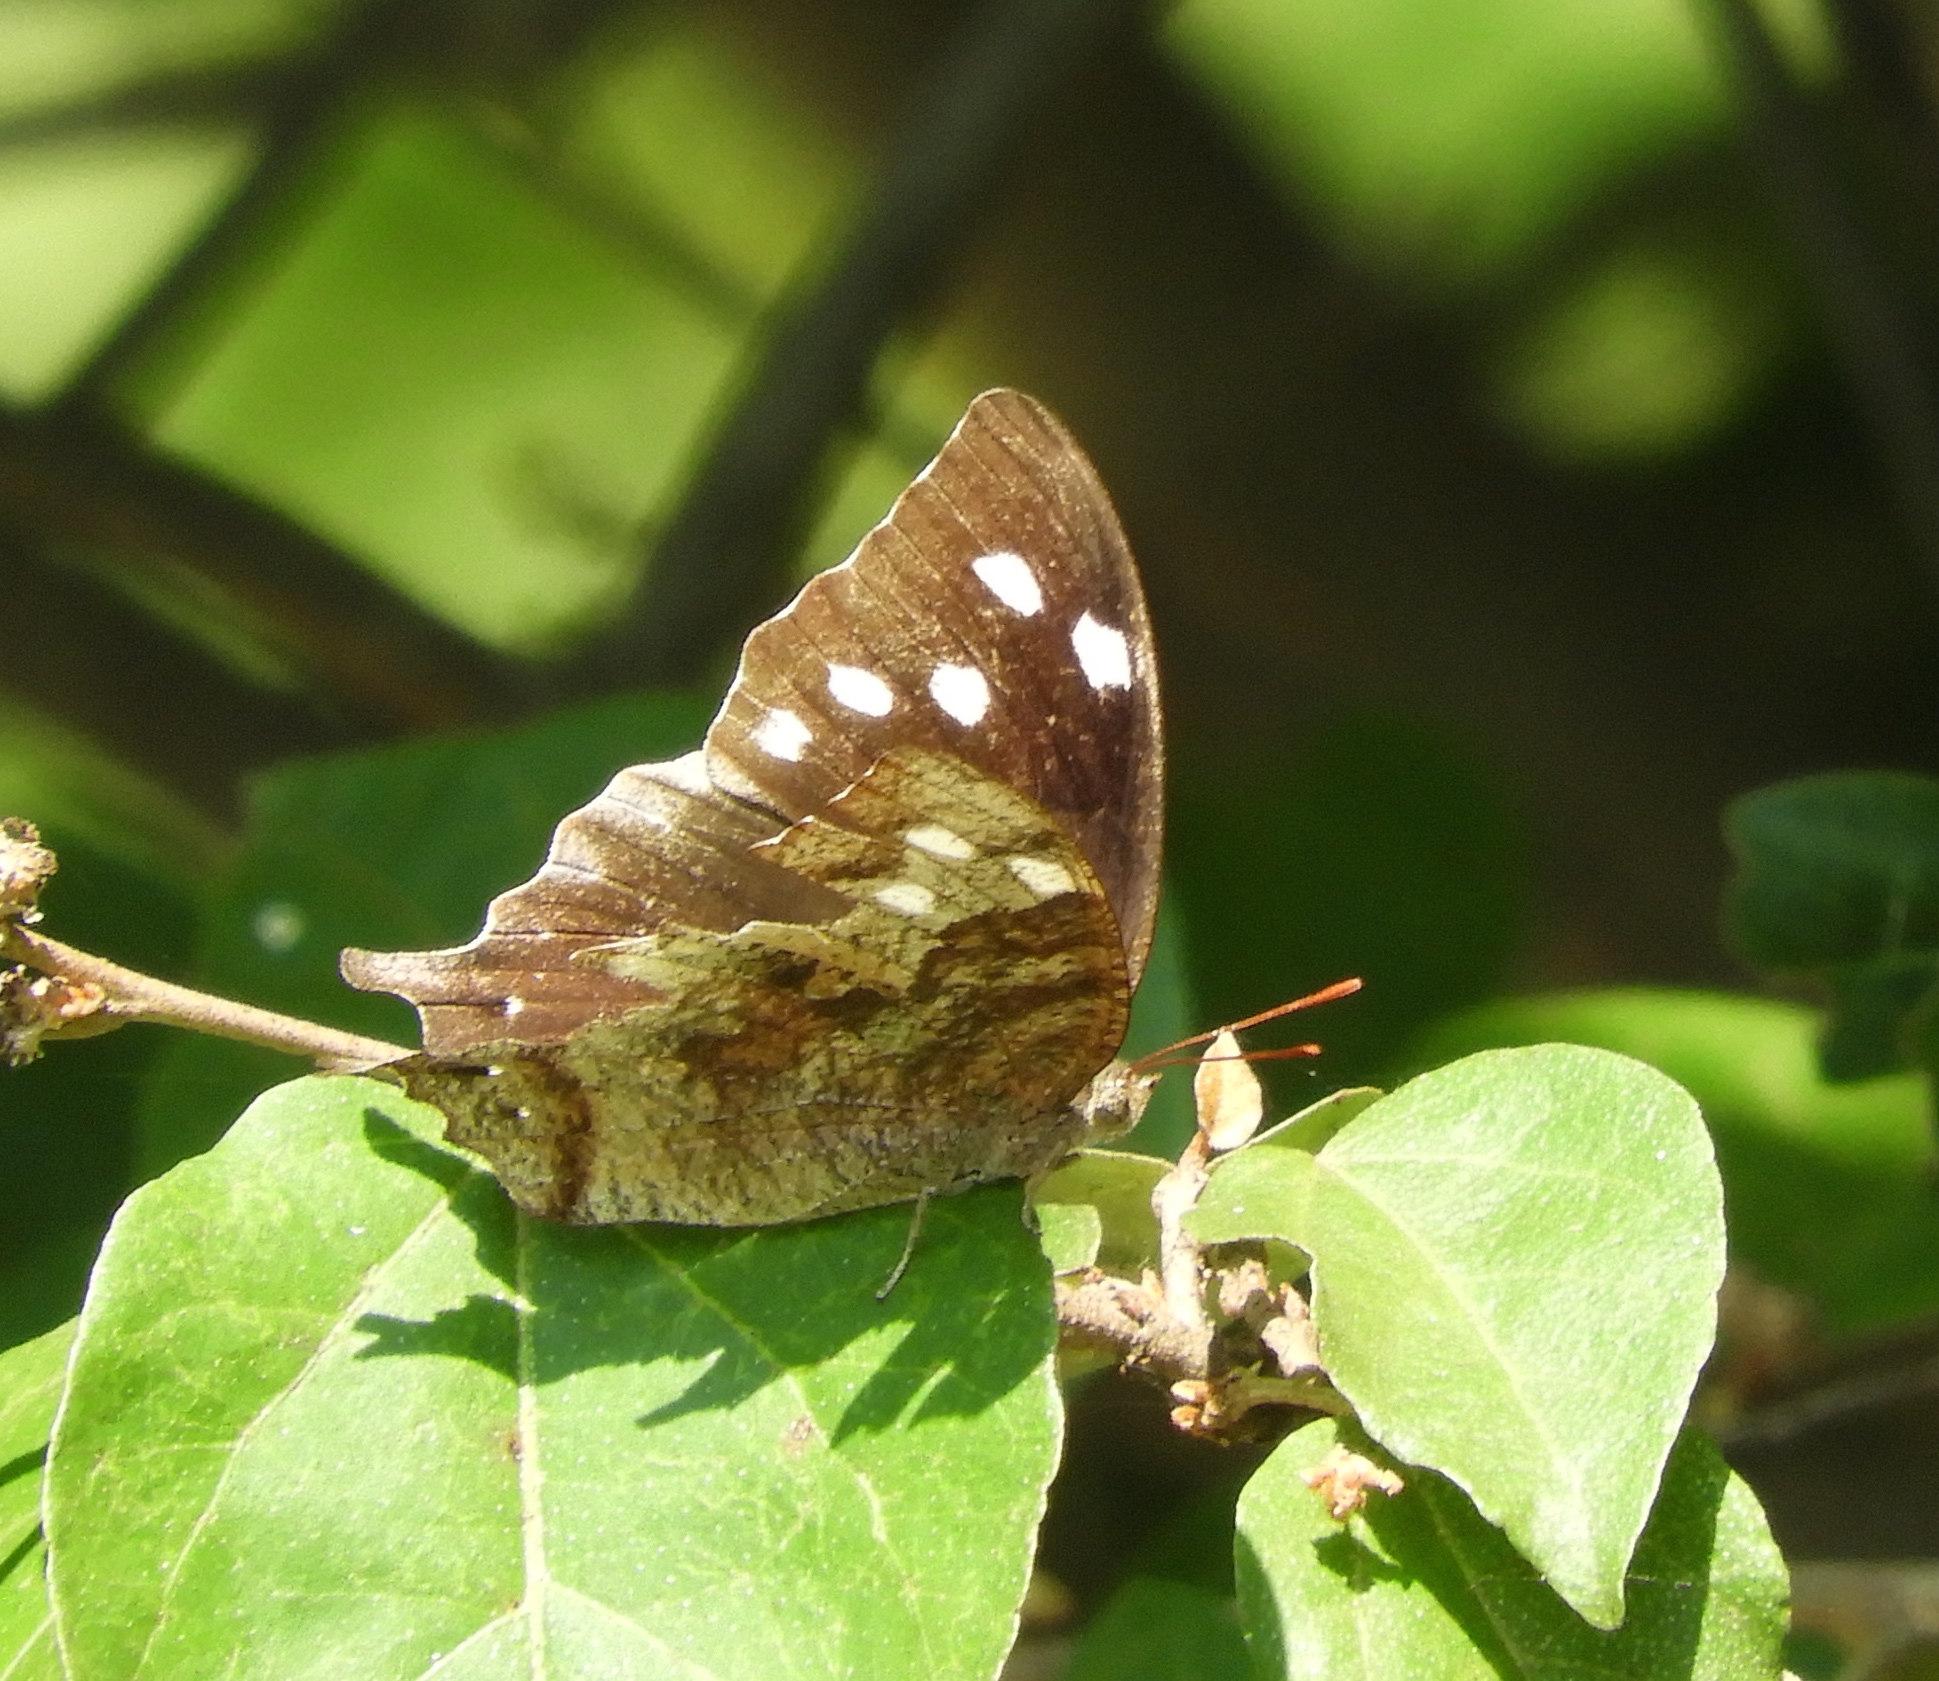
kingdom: Animalia
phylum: Arthropoda
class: Insecta
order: Lepidoptera
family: Nymphalidae
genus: Anaea
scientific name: Anaea pithyusa
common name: Pale-spotted leafwing
